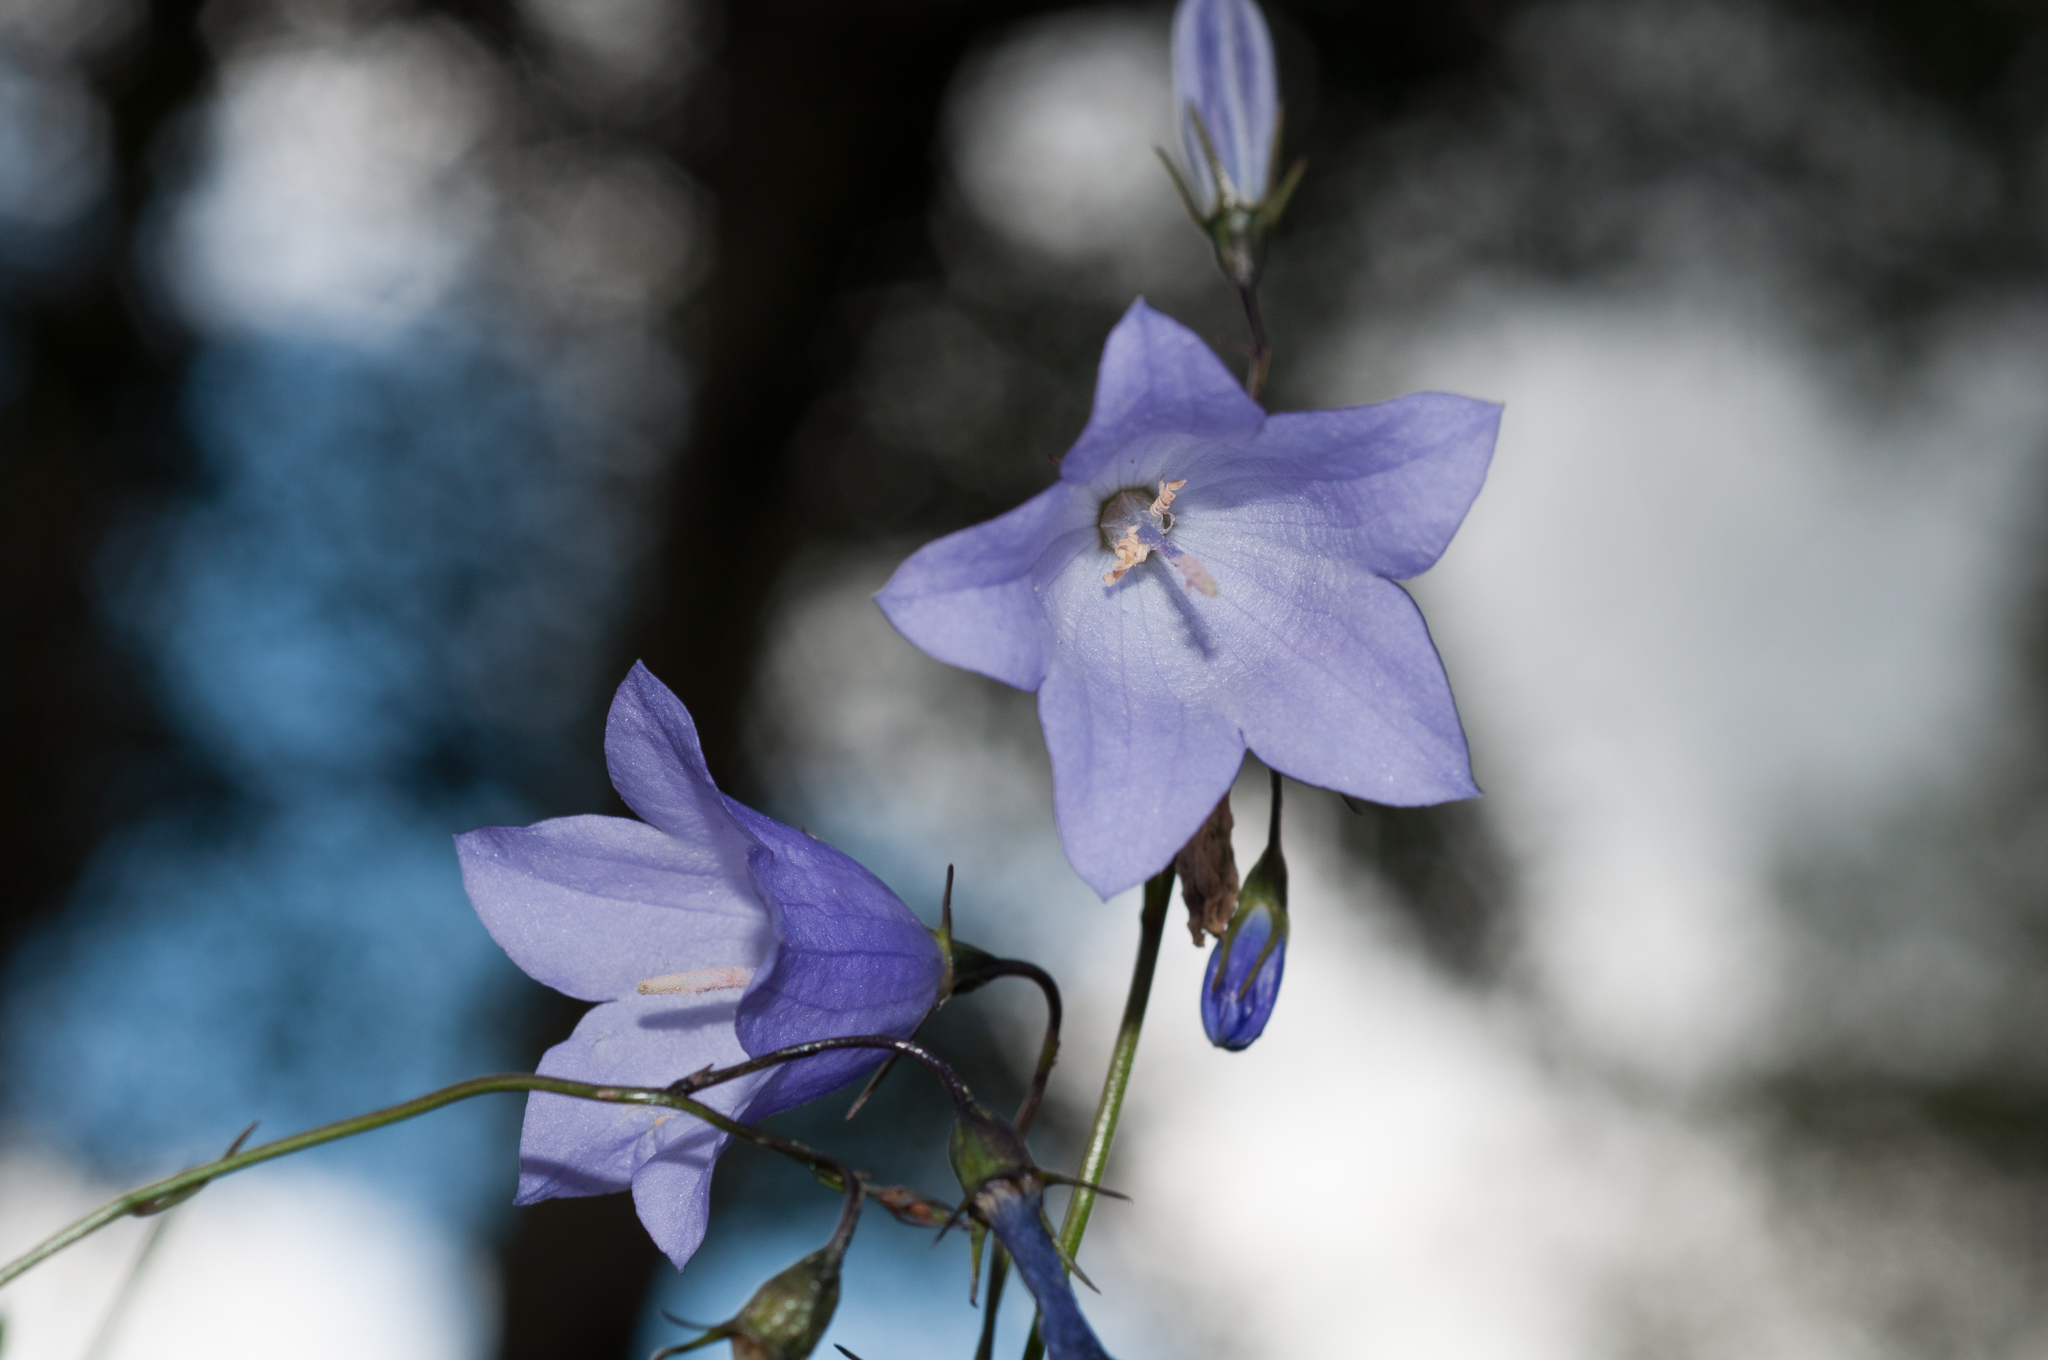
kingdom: Plantae
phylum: Tracheophyta
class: Magnoliopsida
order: Asterales
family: Campanulaceae
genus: Campanula
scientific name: Campanula petiolata
